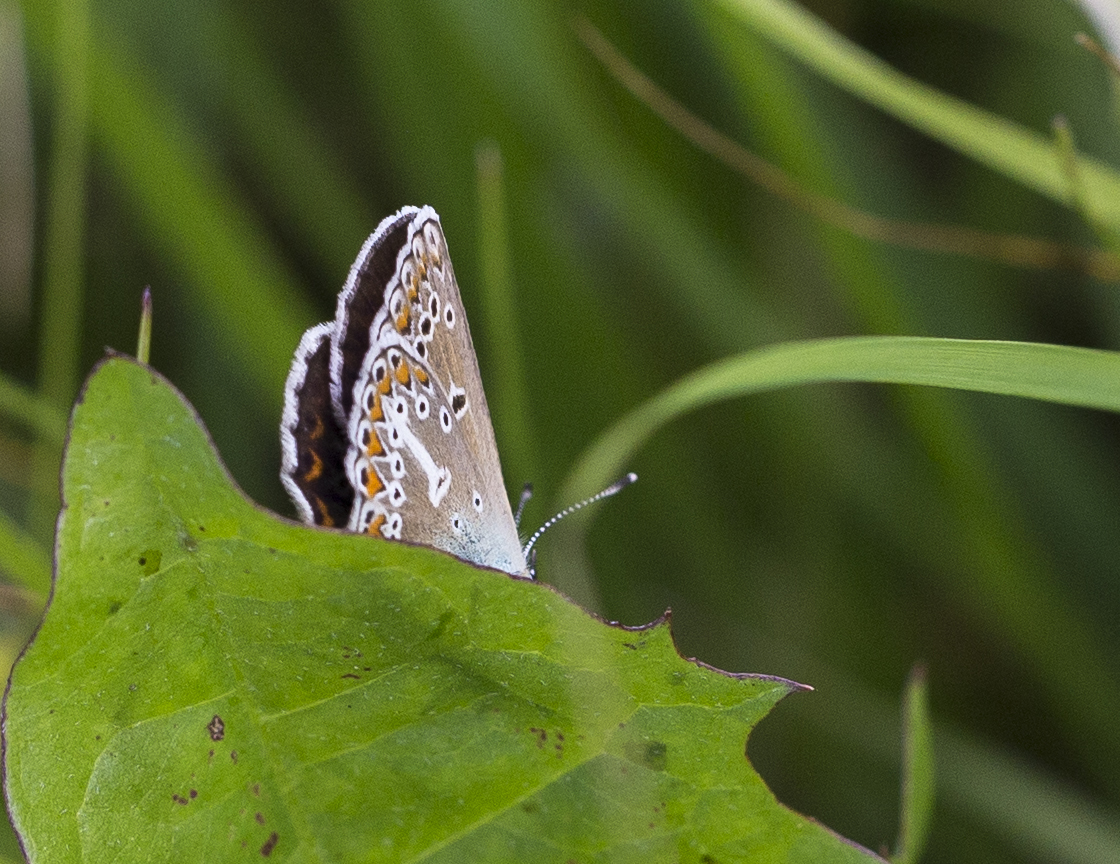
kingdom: Animalia
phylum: Arthropoda
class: Insecta
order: Lepidoptera
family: Lycaenidae
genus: Eumedonia
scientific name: Eumedonia eumedon
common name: Geranium argus
